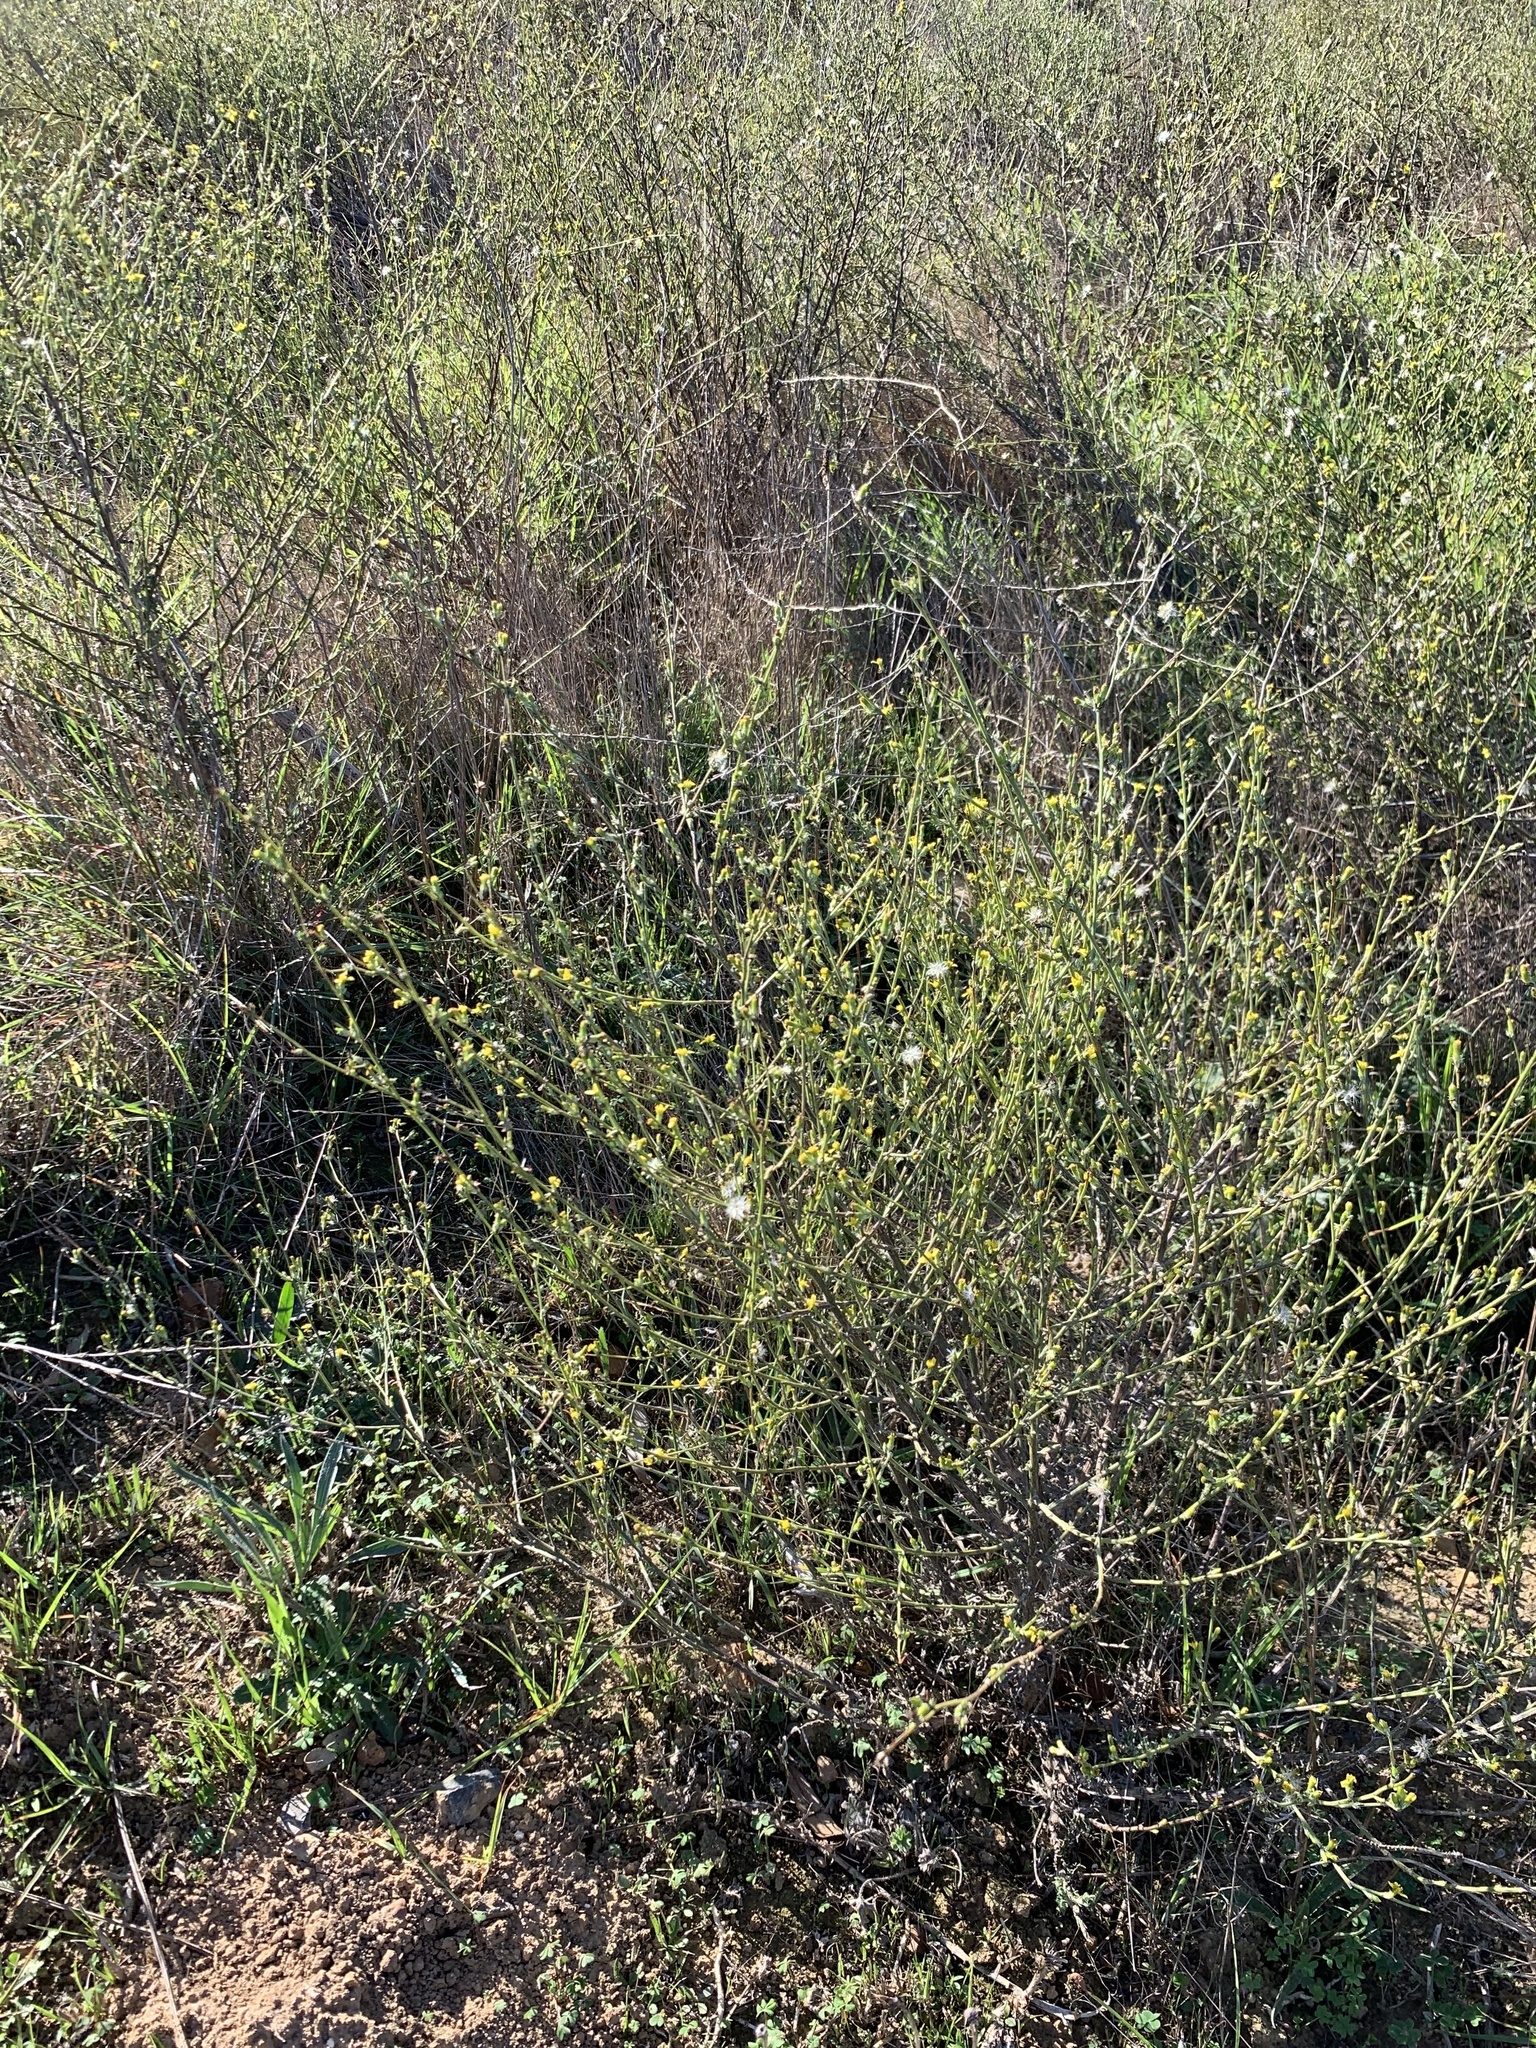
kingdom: Plantae
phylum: Tracheophyta
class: Magnoliopsida
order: Asterales
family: Asteraceae
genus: Senecio
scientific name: Senecio pubigerus
